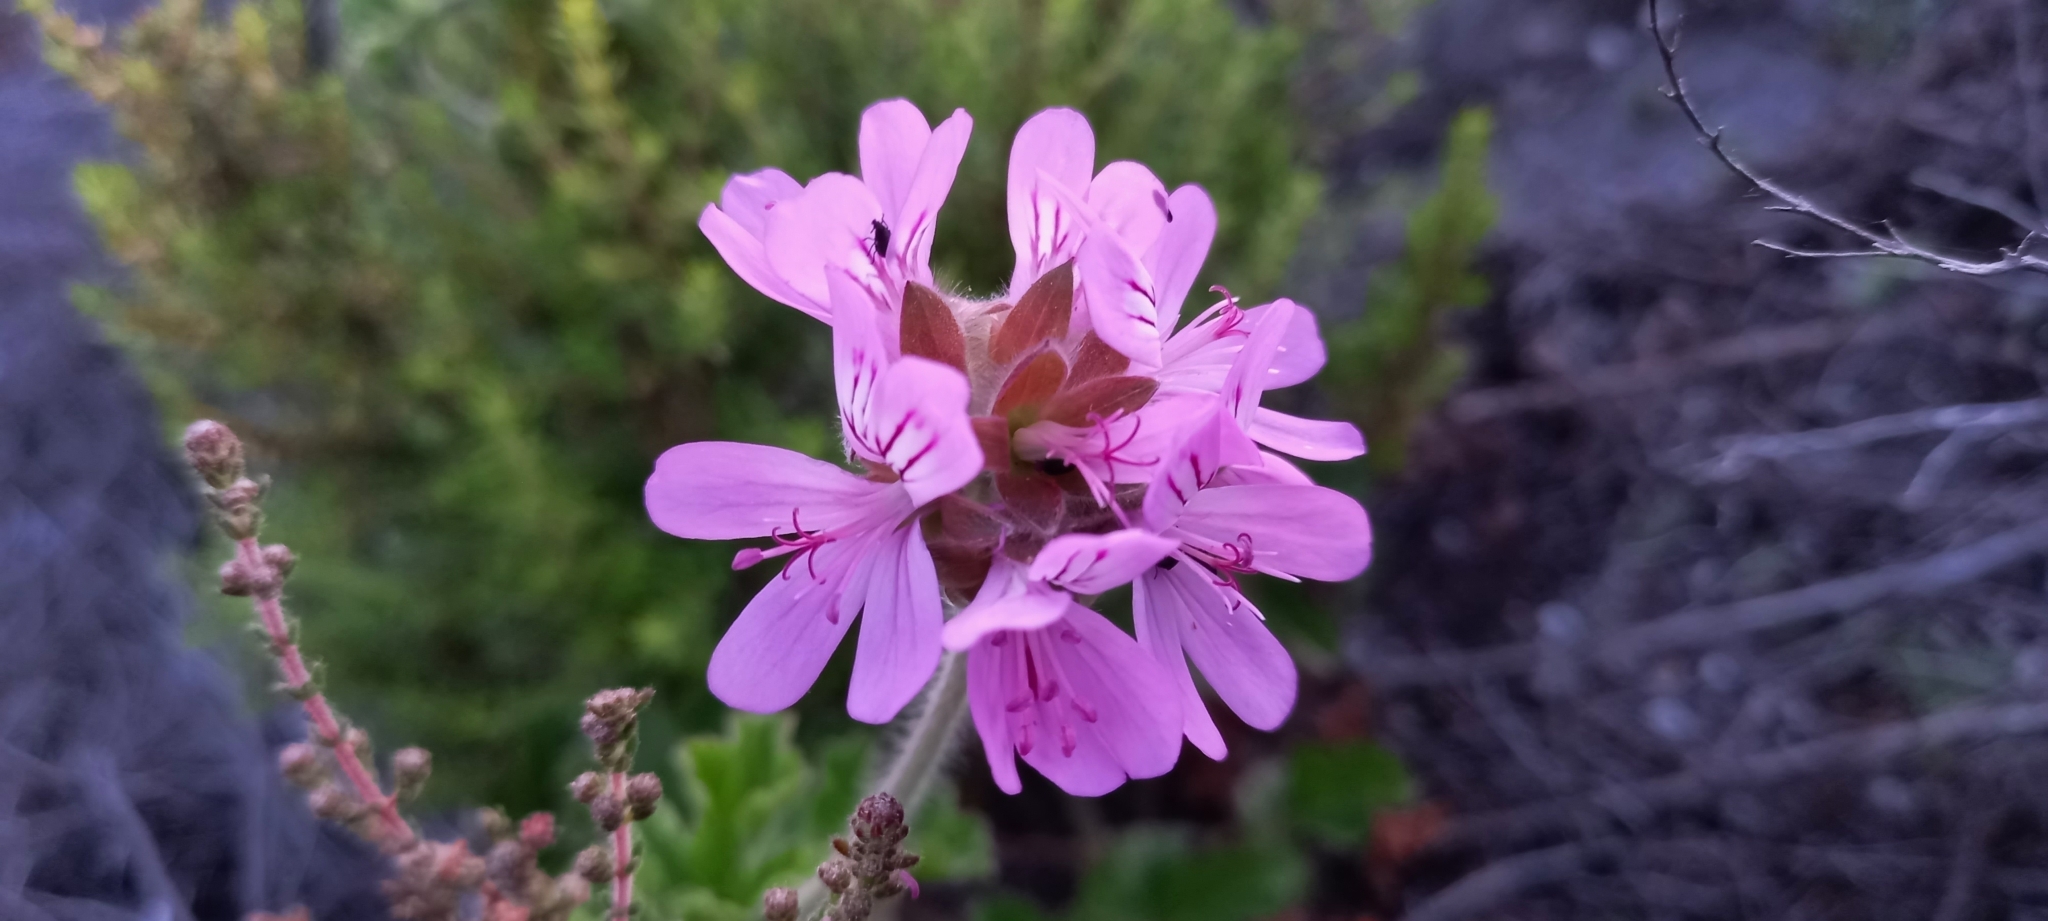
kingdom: Plantae
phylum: Tracheophyta
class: Magnoliopsida
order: Geraniales
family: Geraniaceae
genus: Pelargonium
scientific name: Pelargonium capitatum
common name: Rose scented geranium
